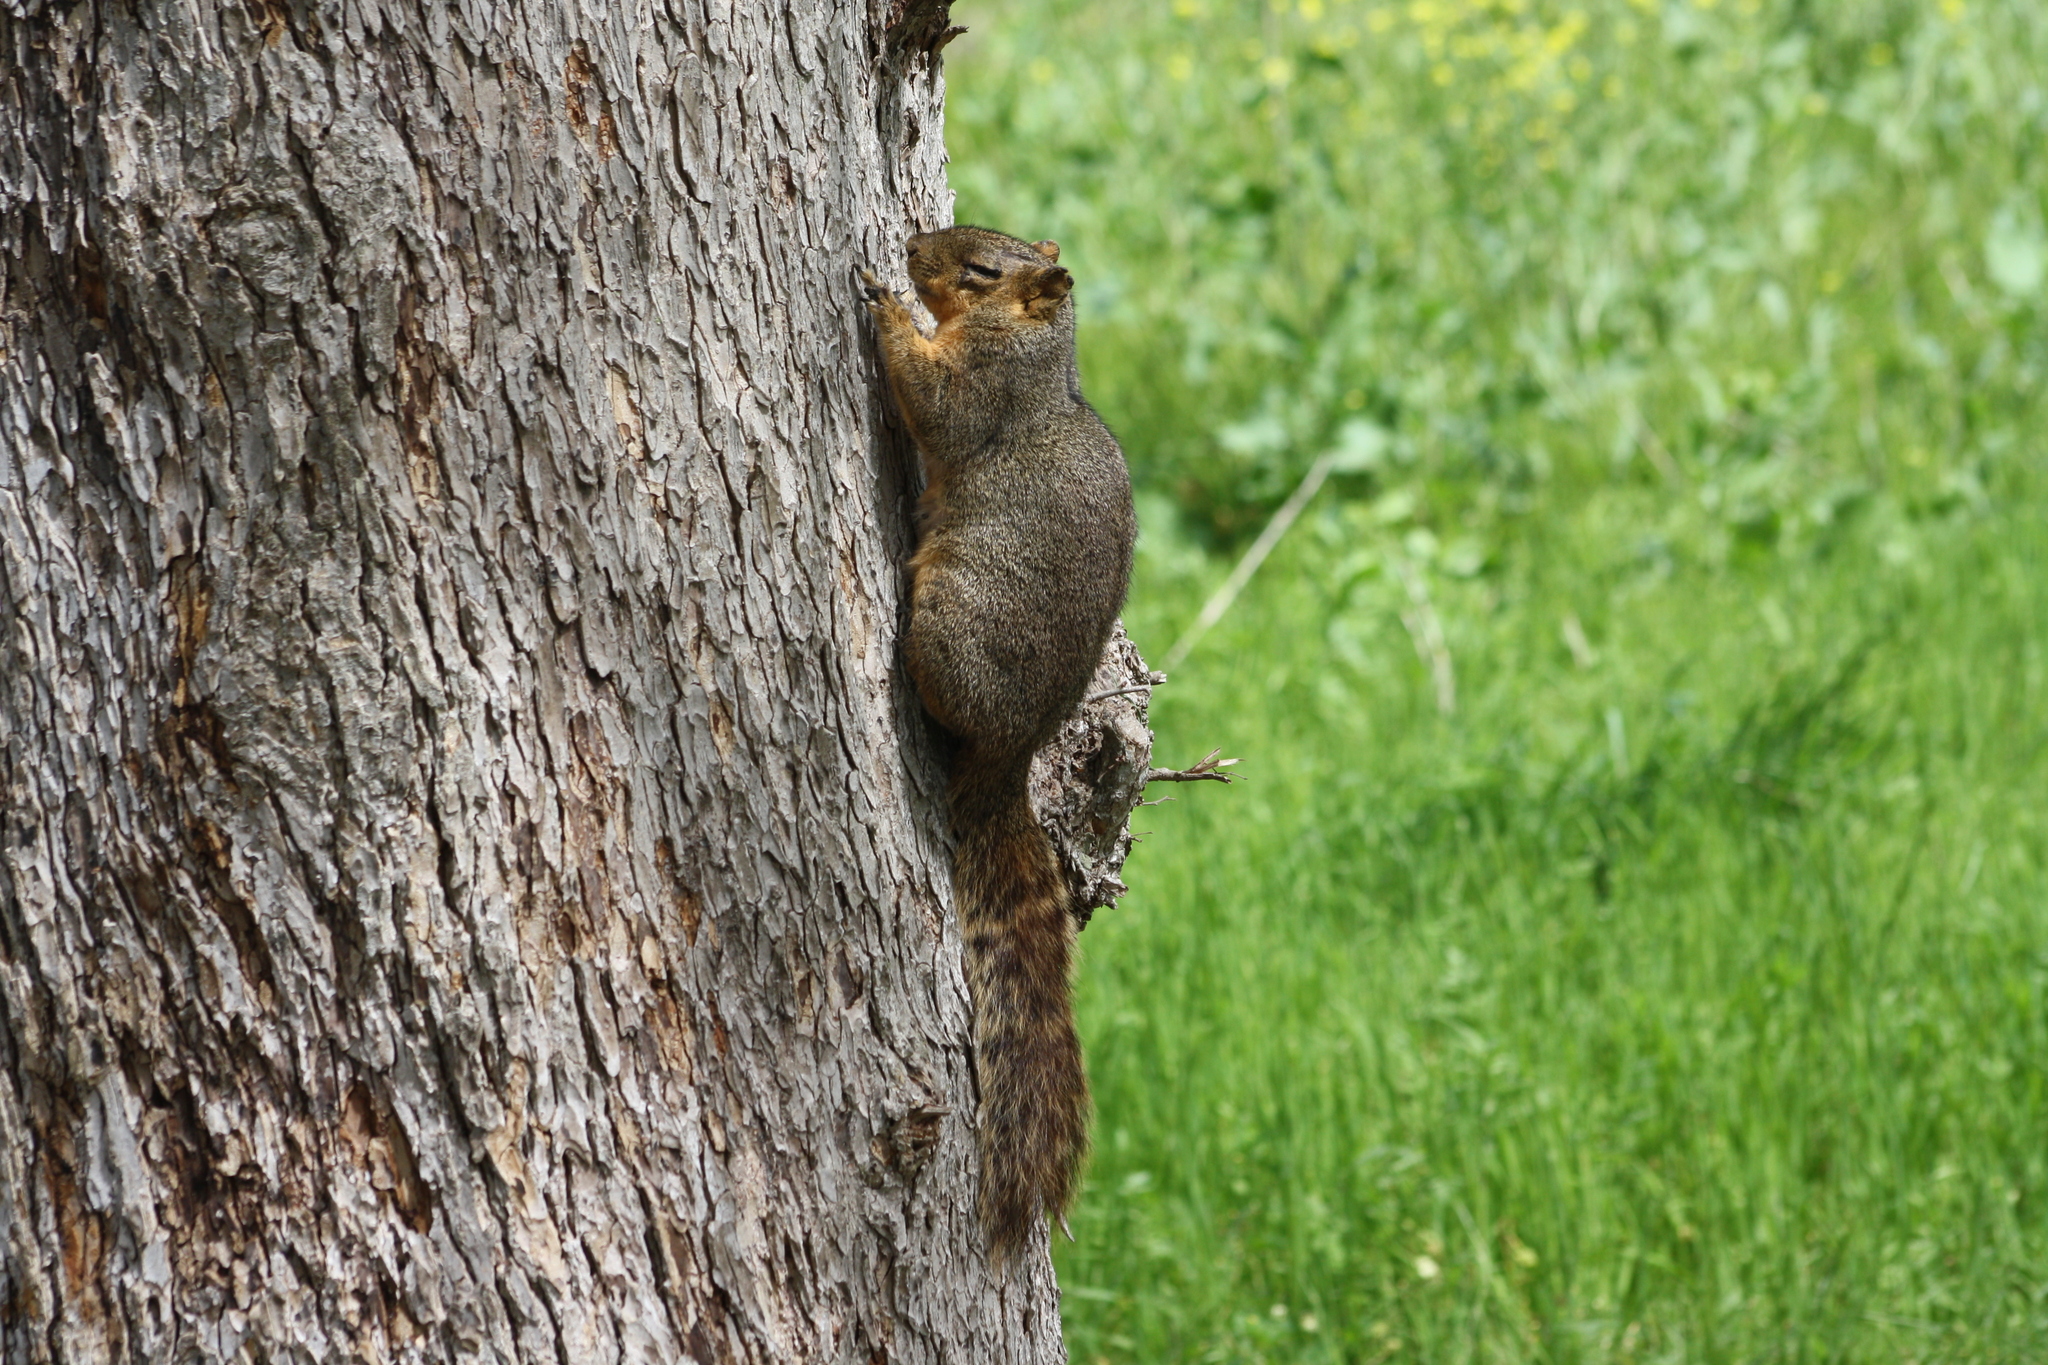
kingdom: Animalia
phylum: Chordata
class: Mammalia
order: Rodentia
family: Sciuridae
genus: Sciurus
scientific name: Sciurus niger
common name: Fox squirrel
